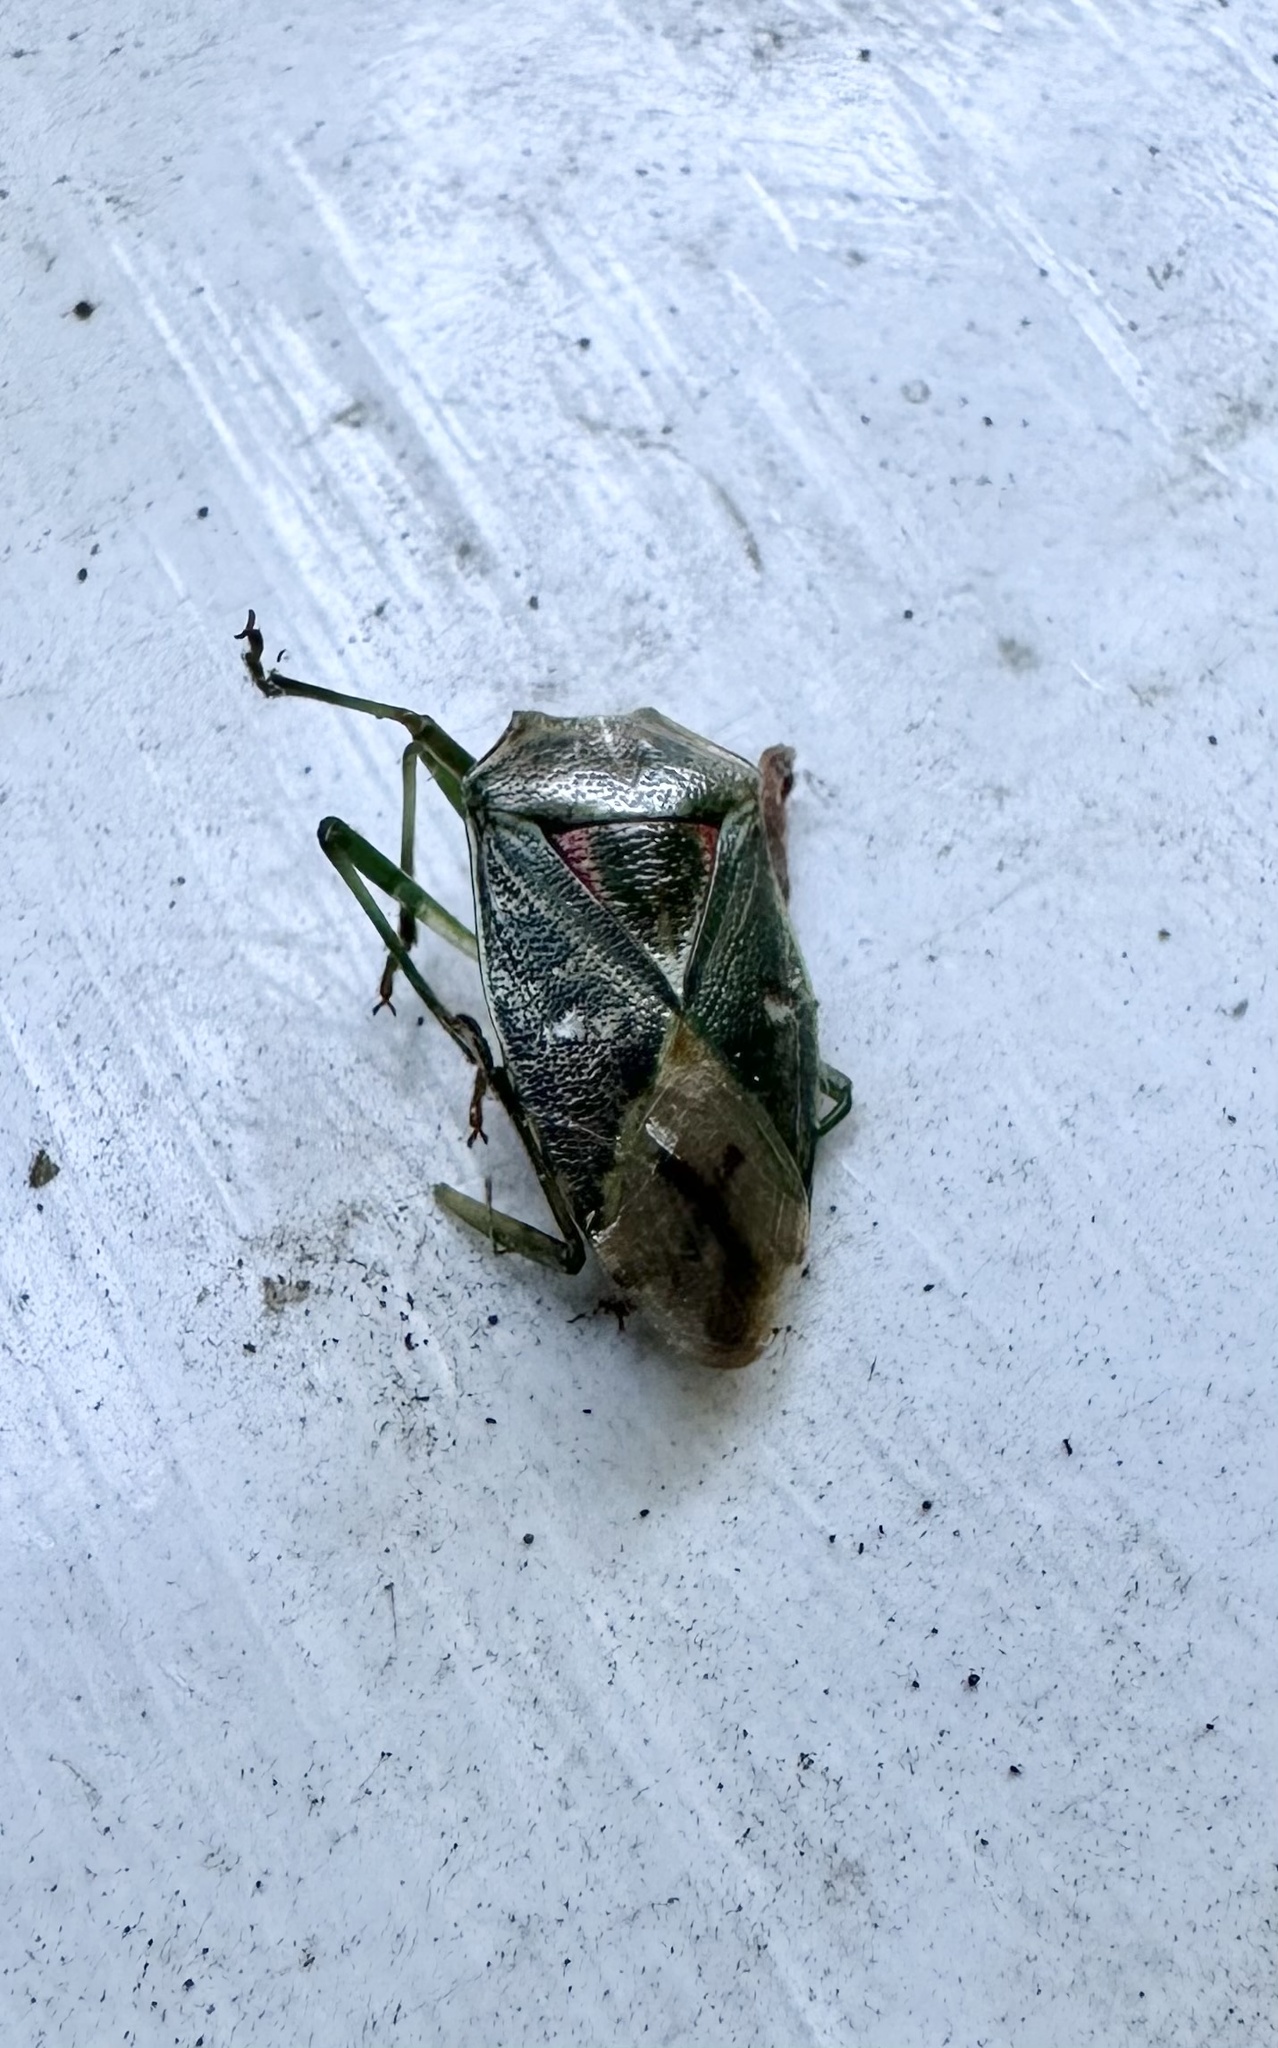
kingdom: Animalia
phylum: Arthropoda
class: Insecta
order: Hemiptera
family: Acanthosomatidae
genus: Planois
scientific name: Planois gayi
